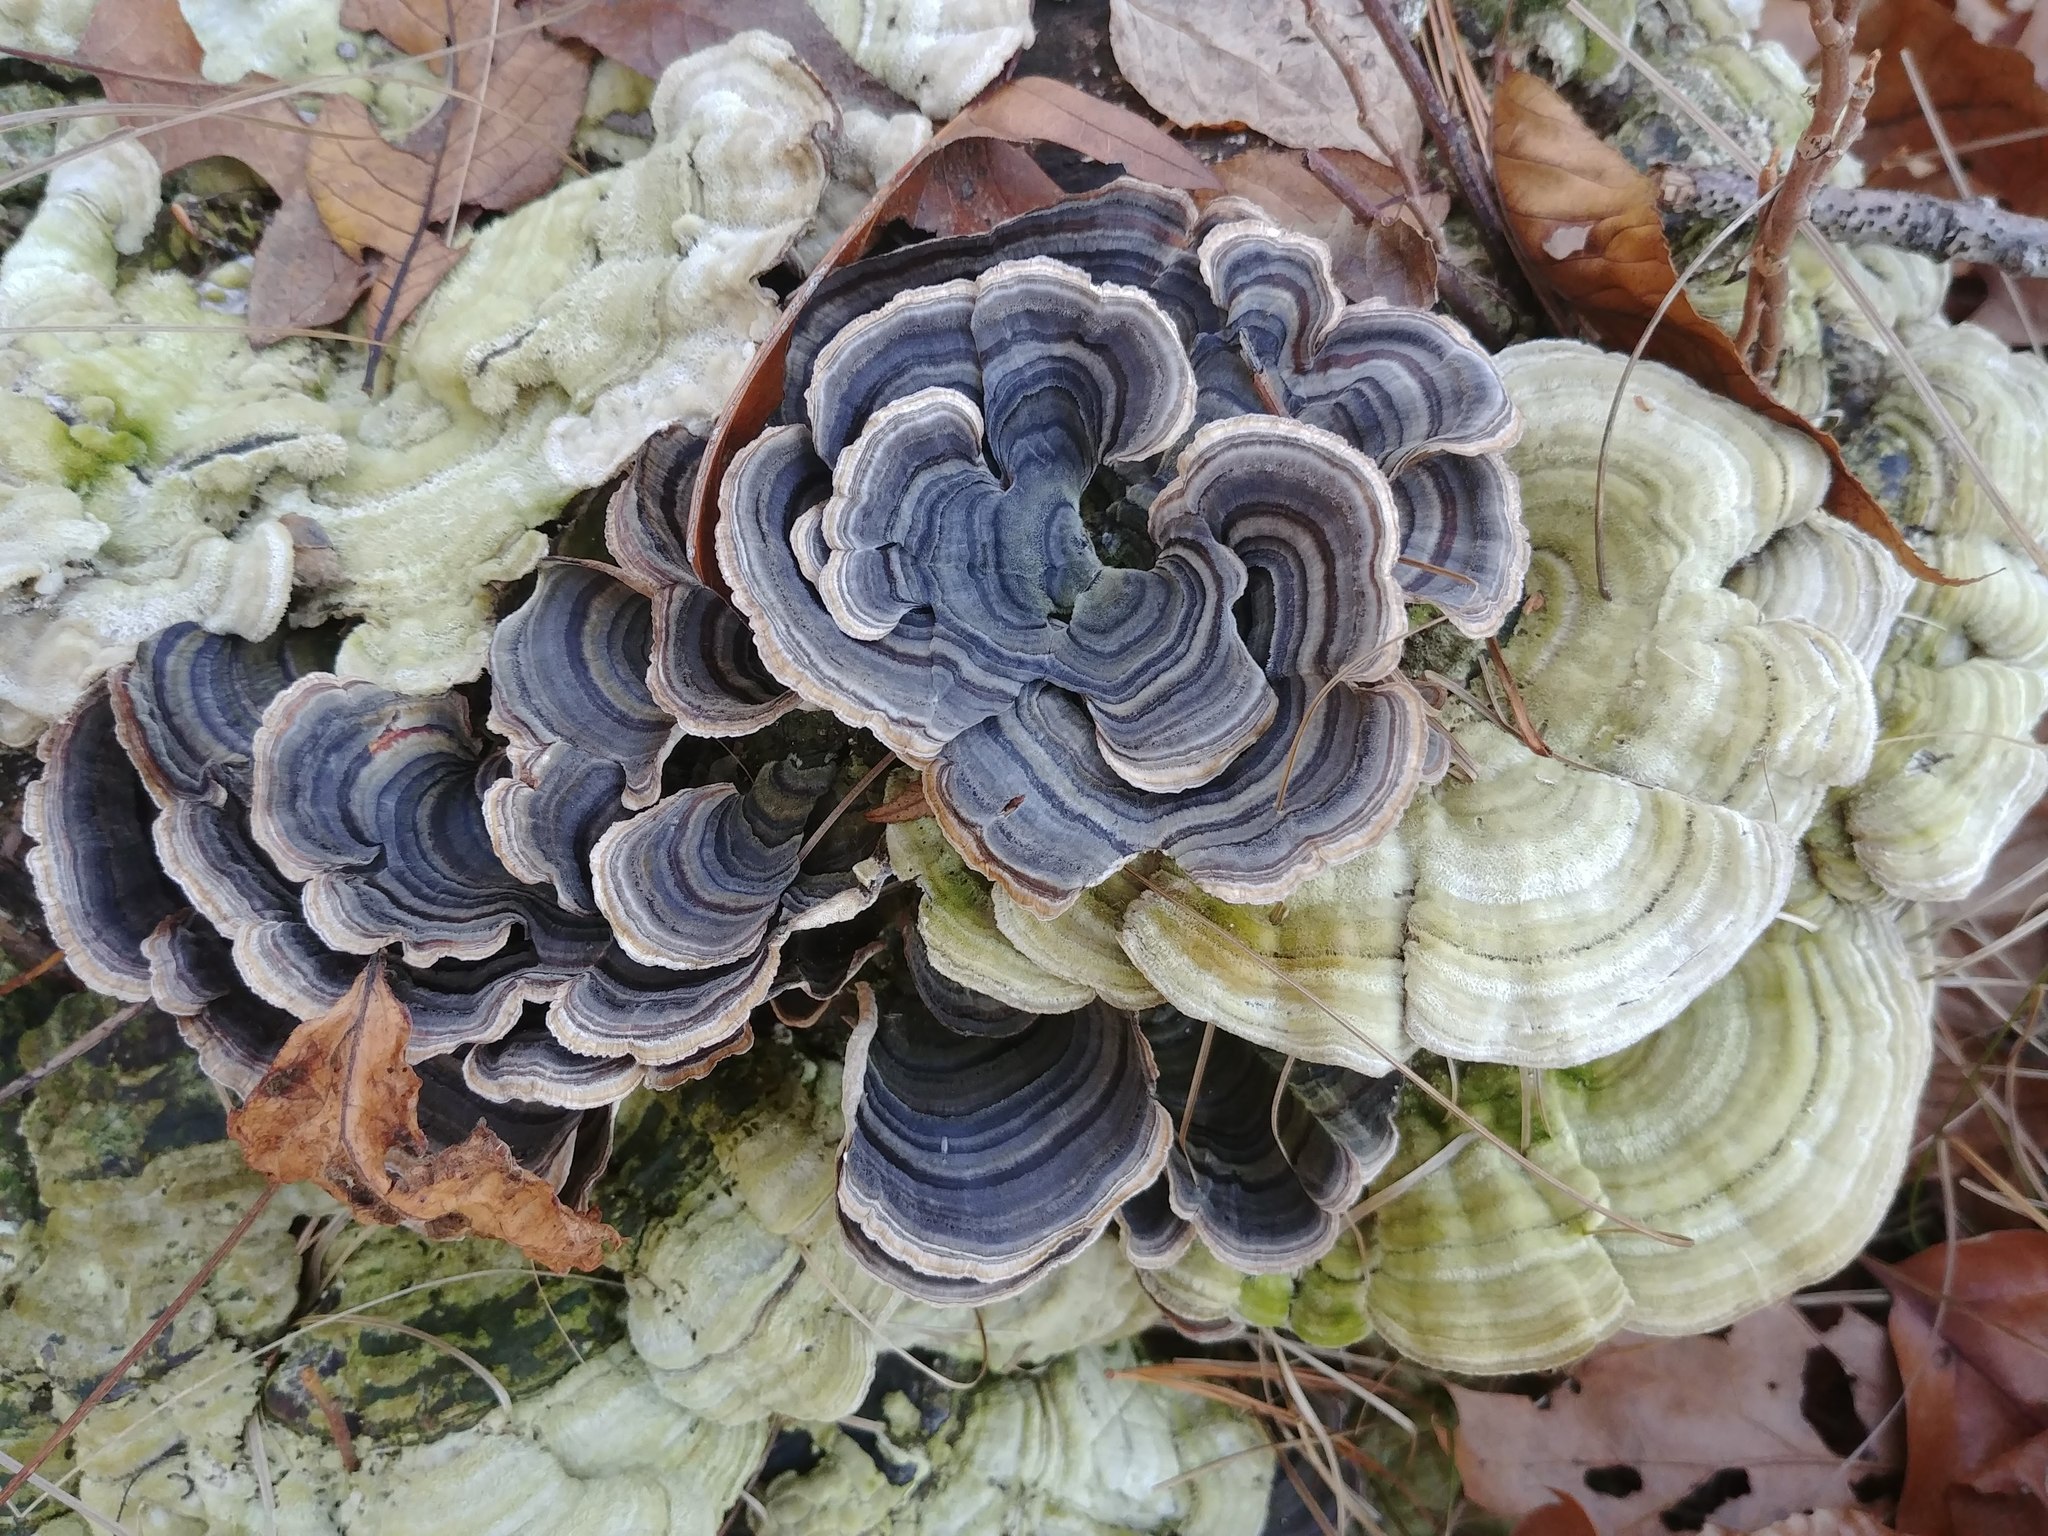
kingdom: Fungi
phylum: Basidiomycota
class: Agaricomycetes
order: Polyporales
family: Polyporaceae
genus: Trametes
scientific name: Trametes versicolor
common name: Turkeytail
